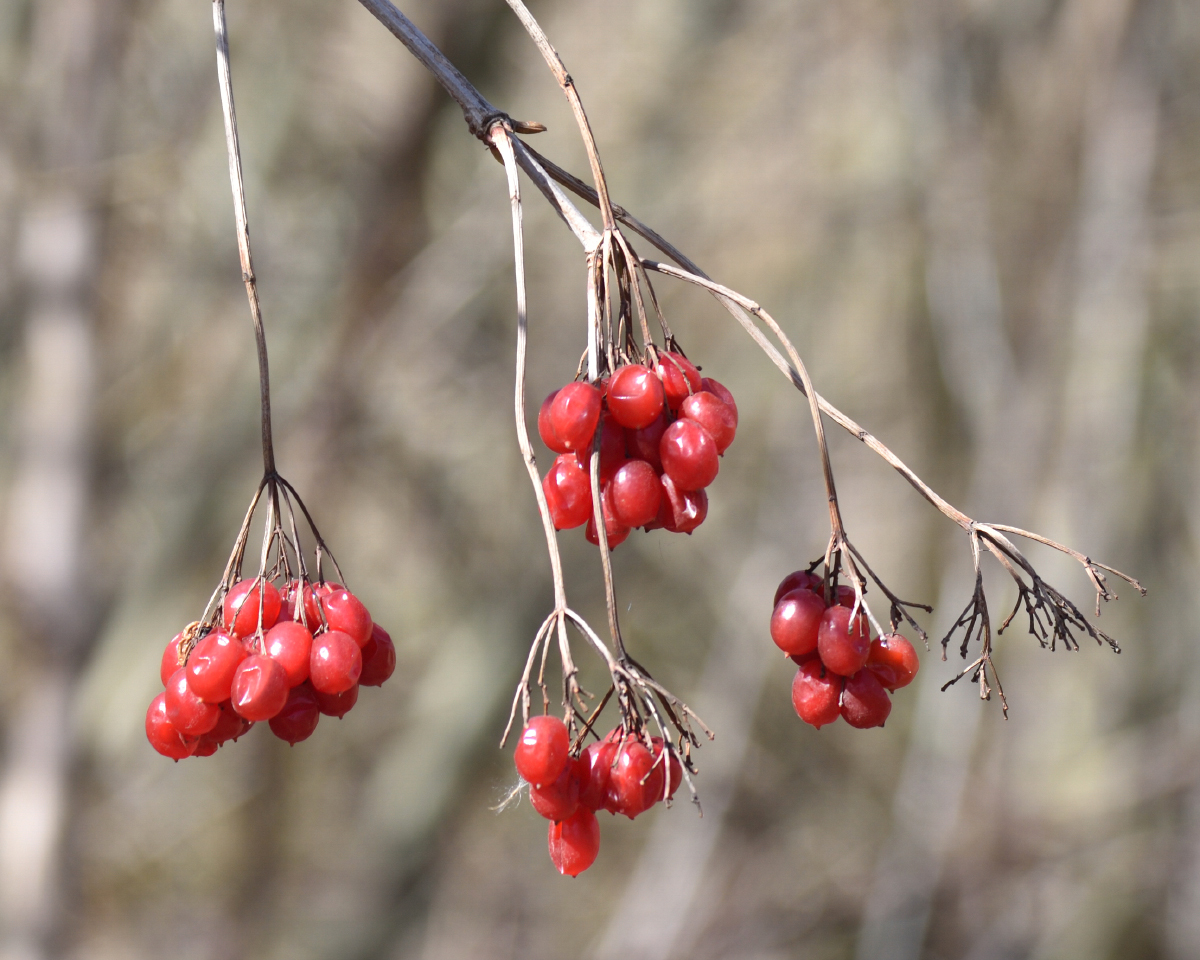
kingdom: Plantae
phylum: Tracheophyta
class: Magnoliopsida
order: Dipsacales
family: Viburnaceae
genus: Viburnum
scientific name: Viburnum opulus
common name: Guelder-rose
